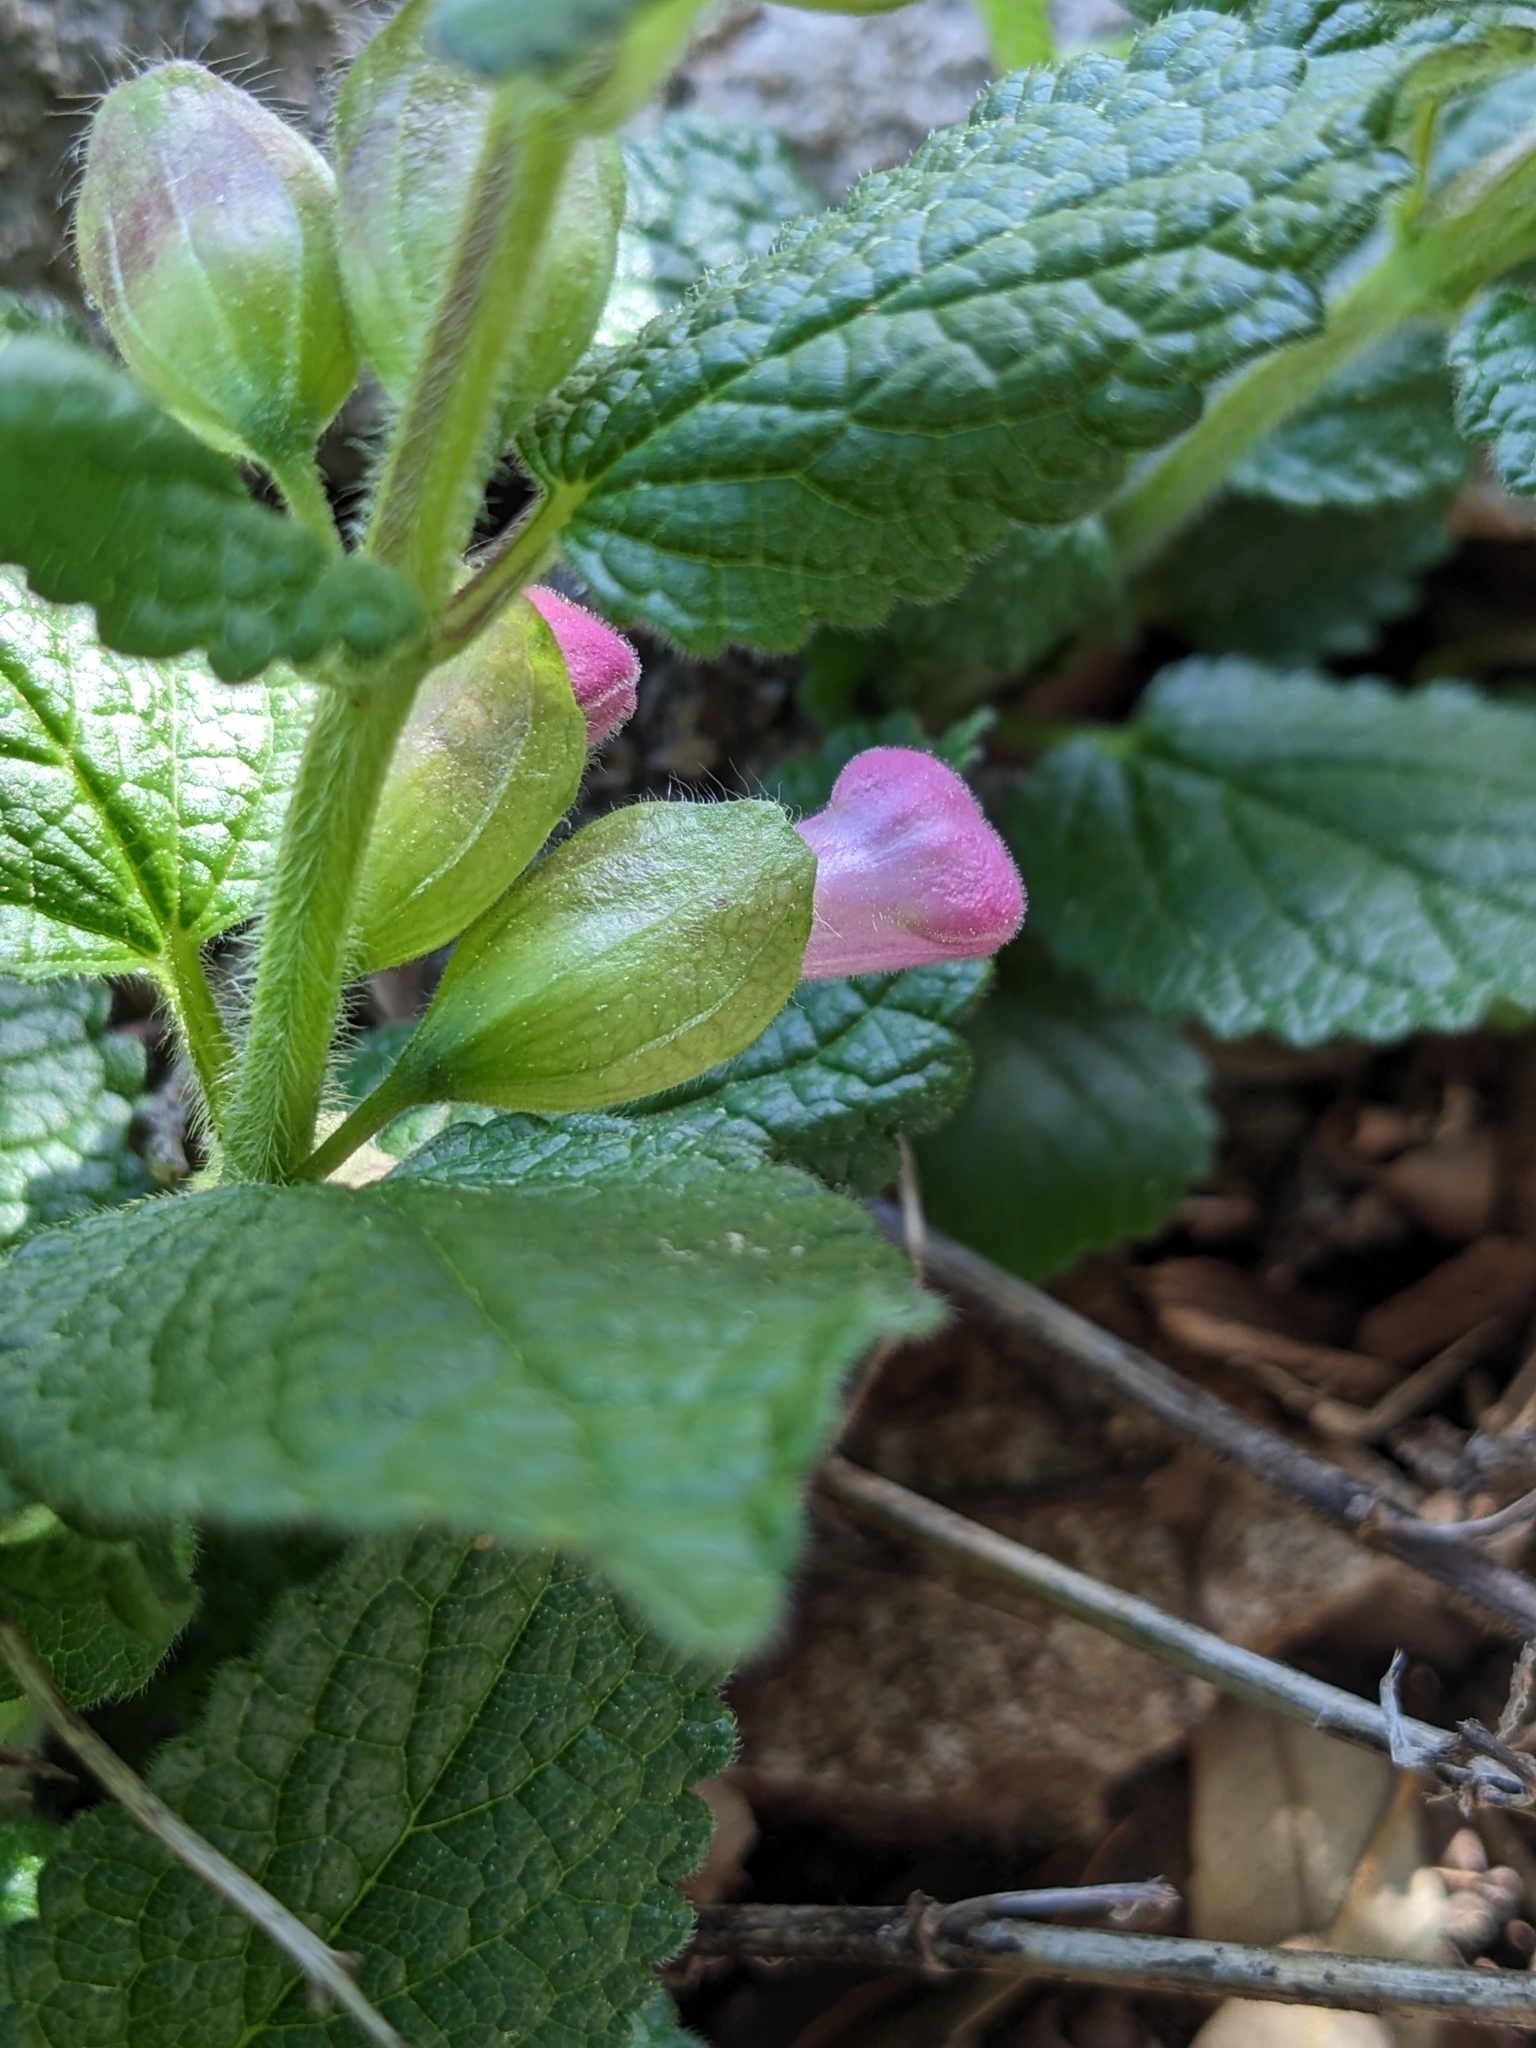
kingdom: Plantae
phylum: Tracheophyta
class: Magnoliopsida
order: Lamiales
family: Lamiaceae
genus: Melittis
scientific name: Melittis melissophyllum
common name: Bastard balm
